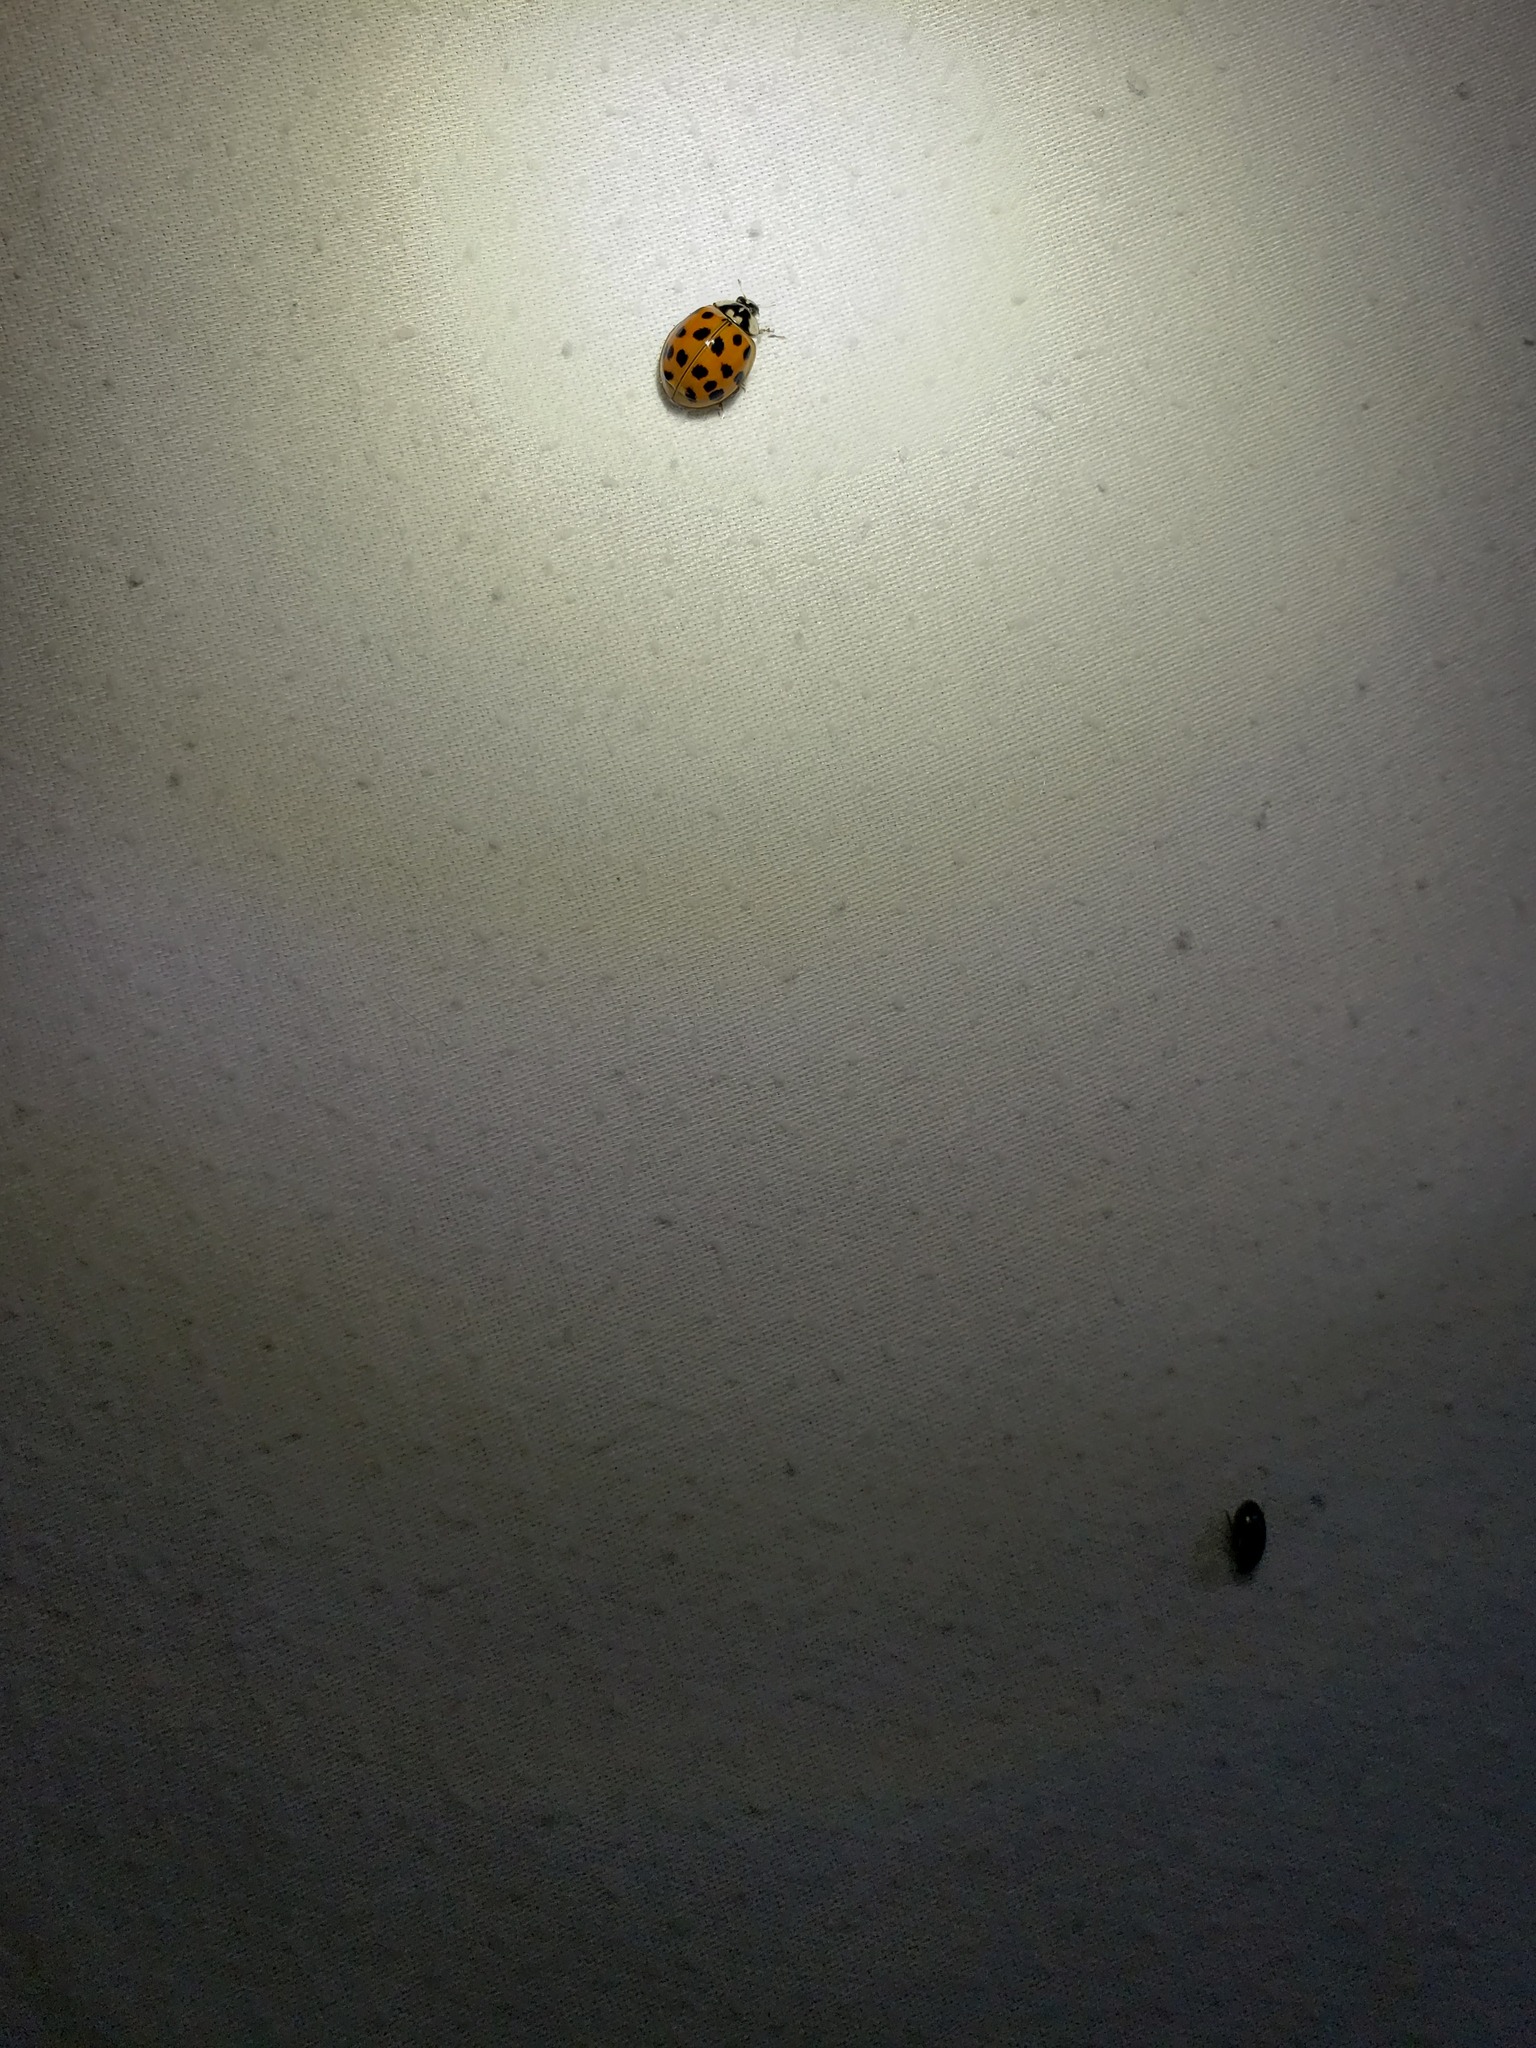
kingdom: Animalia
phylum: Arthropoda
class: Insecta
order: Coleoptera
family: Coccinellidae
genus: Harmonia
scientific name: Harmonia axyridis
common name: Harlequin ladybird
